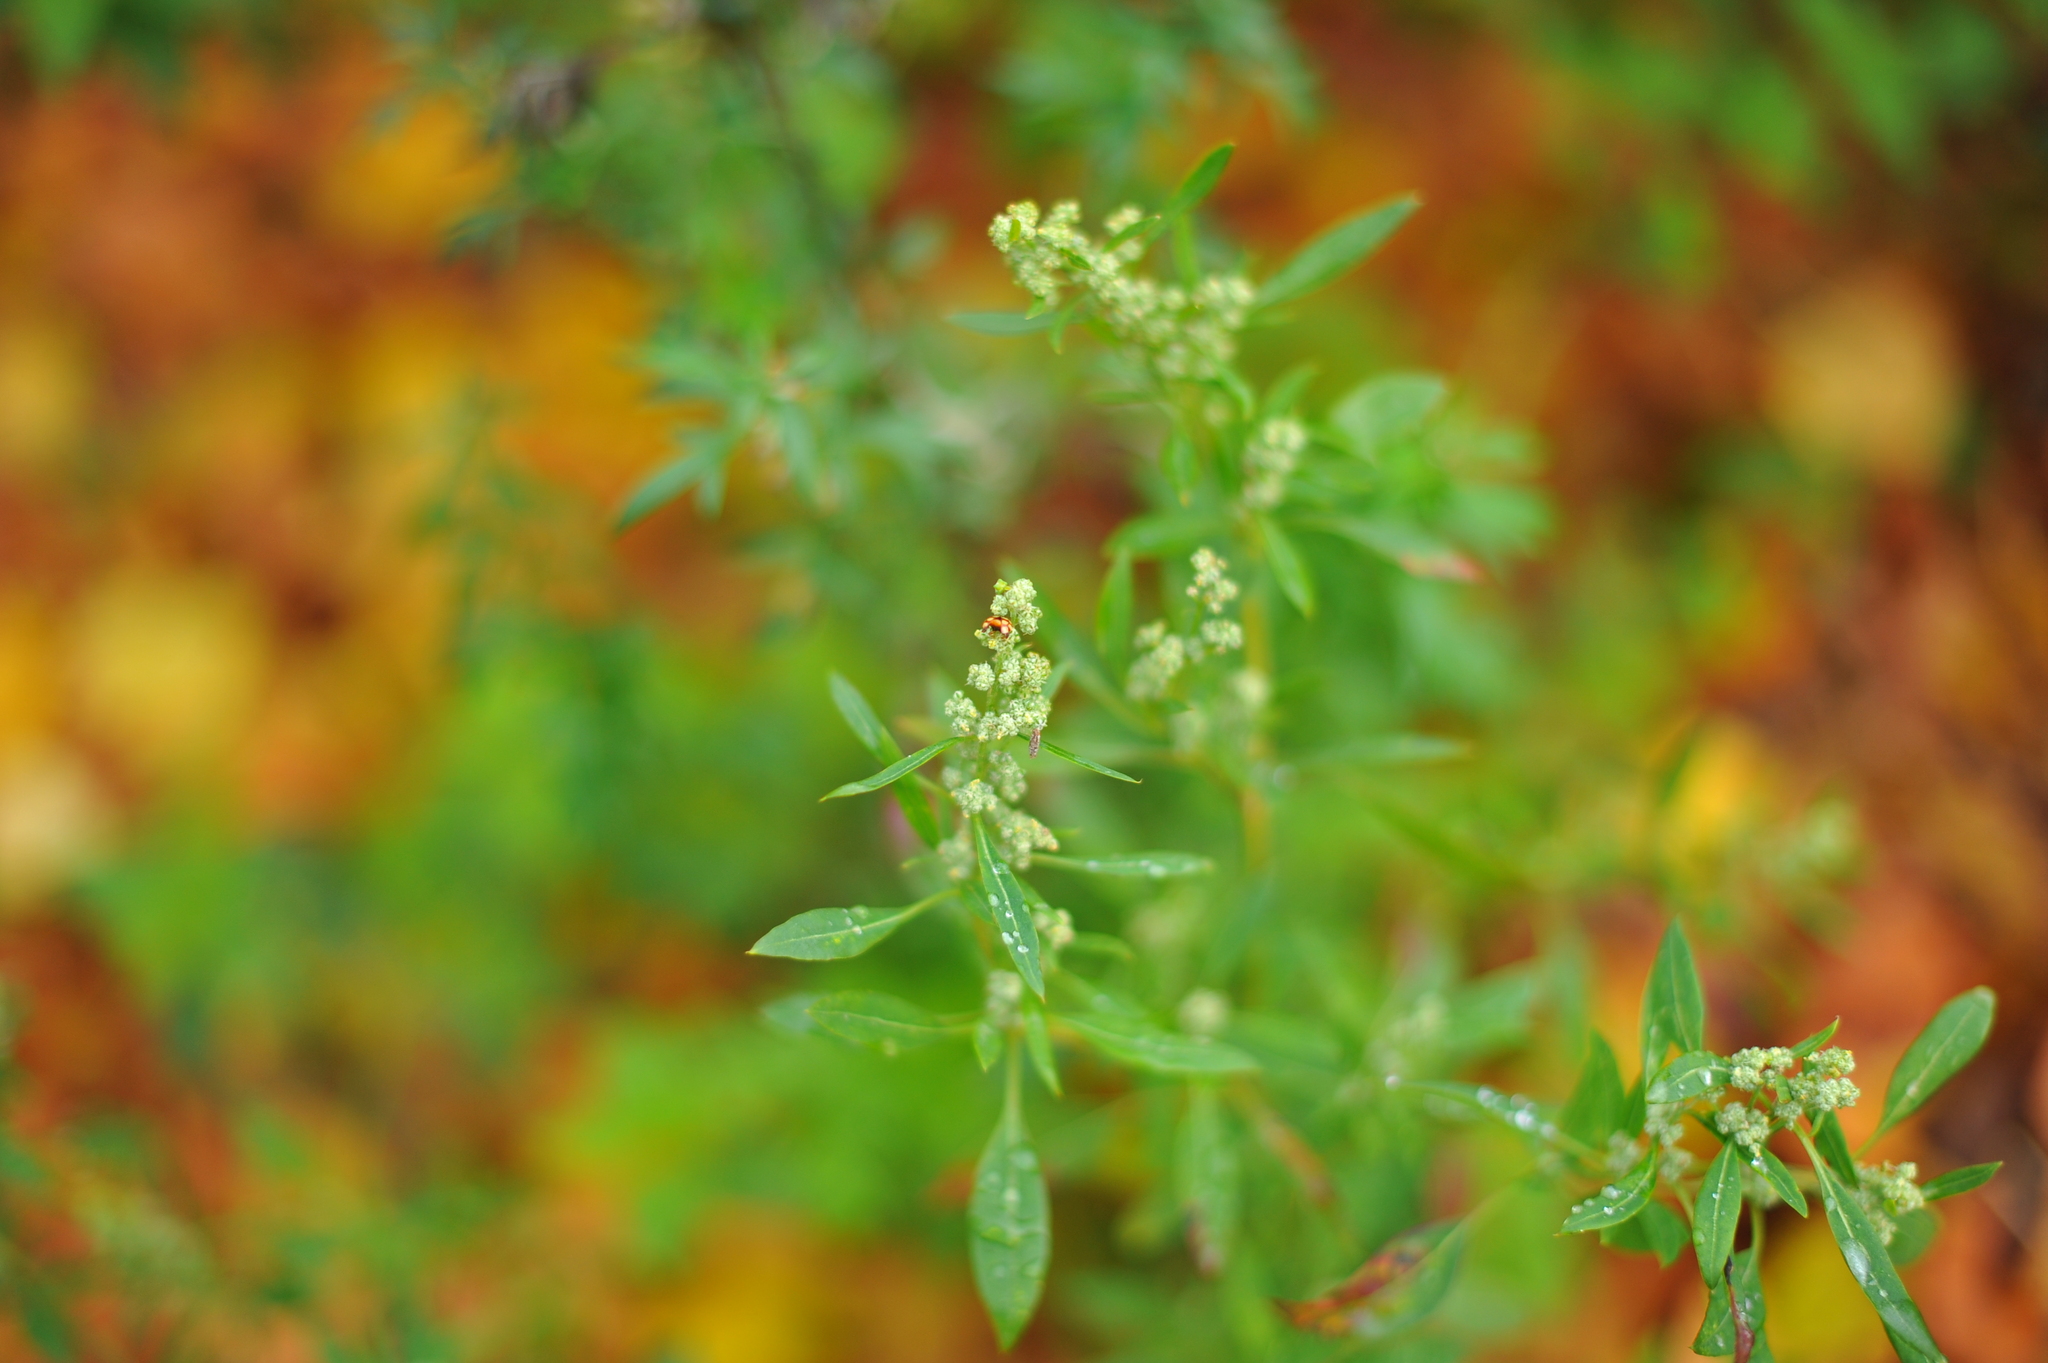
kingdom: Plantae
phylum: Tracheophyta
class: Magnoliopsida
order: Caryophyllales
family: Amaranthaceae
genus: Chenopodium
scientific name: Chenopodium album
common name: Fat-hen
